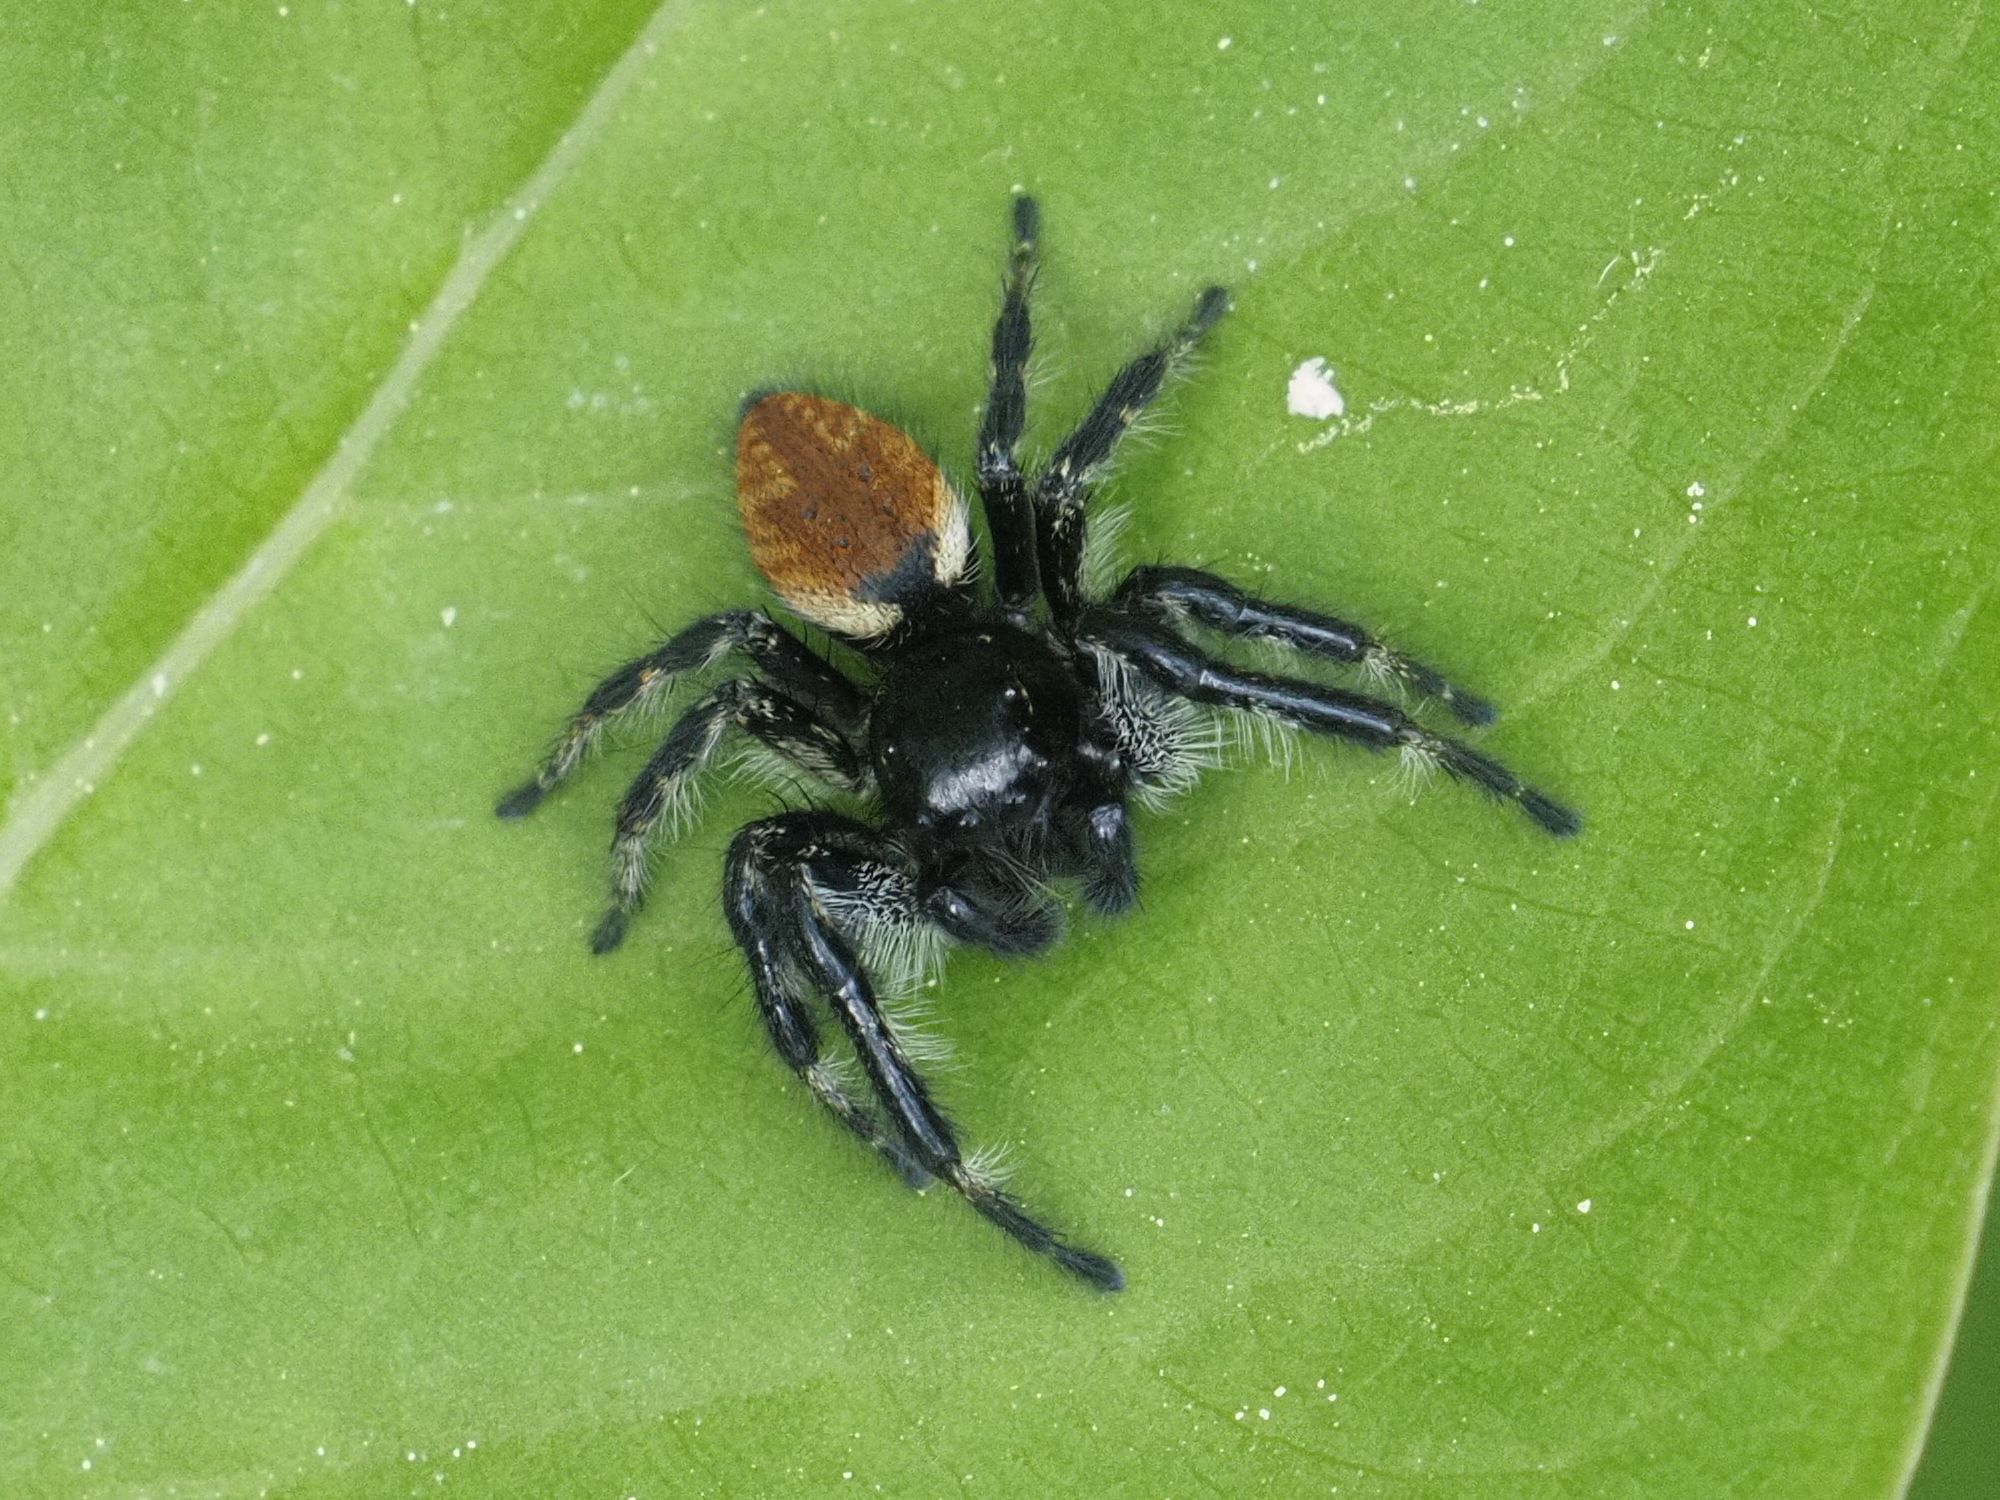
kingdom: Animalia
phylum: Arthropoda
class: Arachnida
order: Araneae
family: Salticidae
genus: Carrhotus
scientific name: Carrhotus xanthogramma
